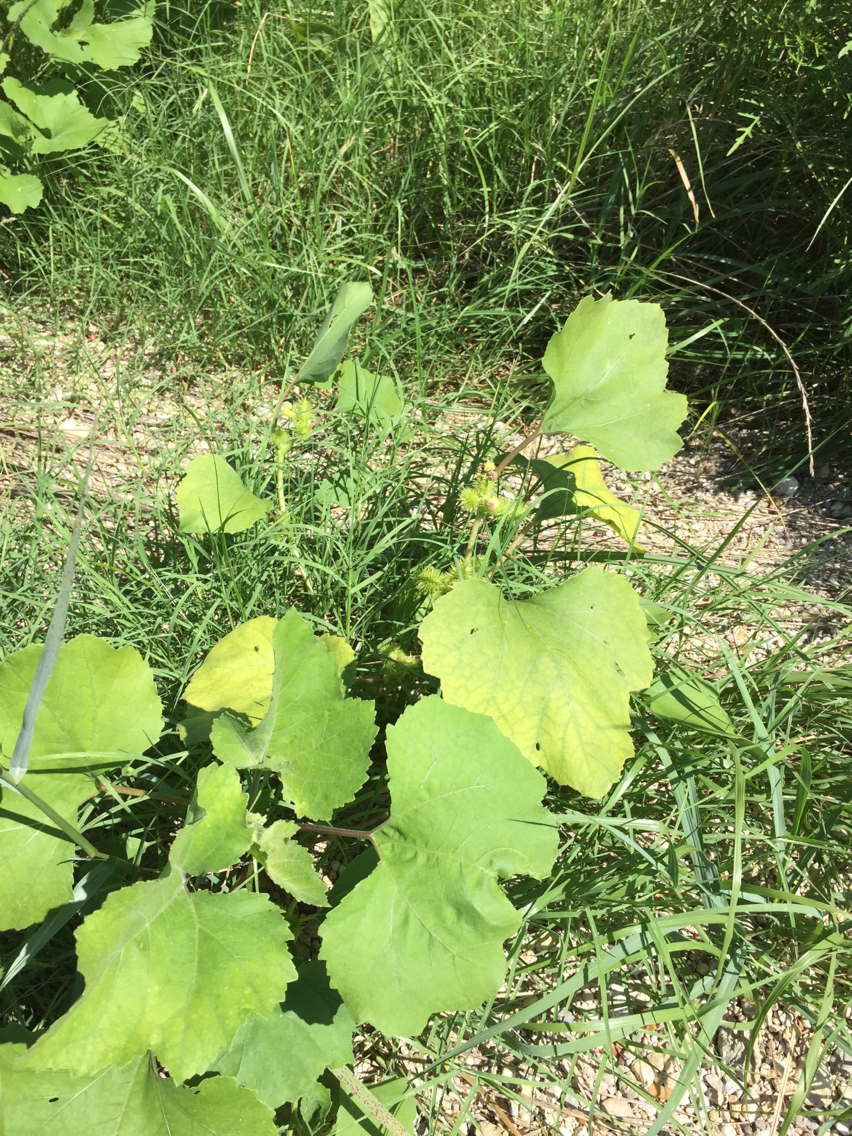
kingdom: Plantae
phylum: Tracheophyta
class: Magnoliopsida
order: Asterales
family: Asteraceae
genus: Xanthium
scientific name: Xanthium strumarium
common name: Rough cocklebur
